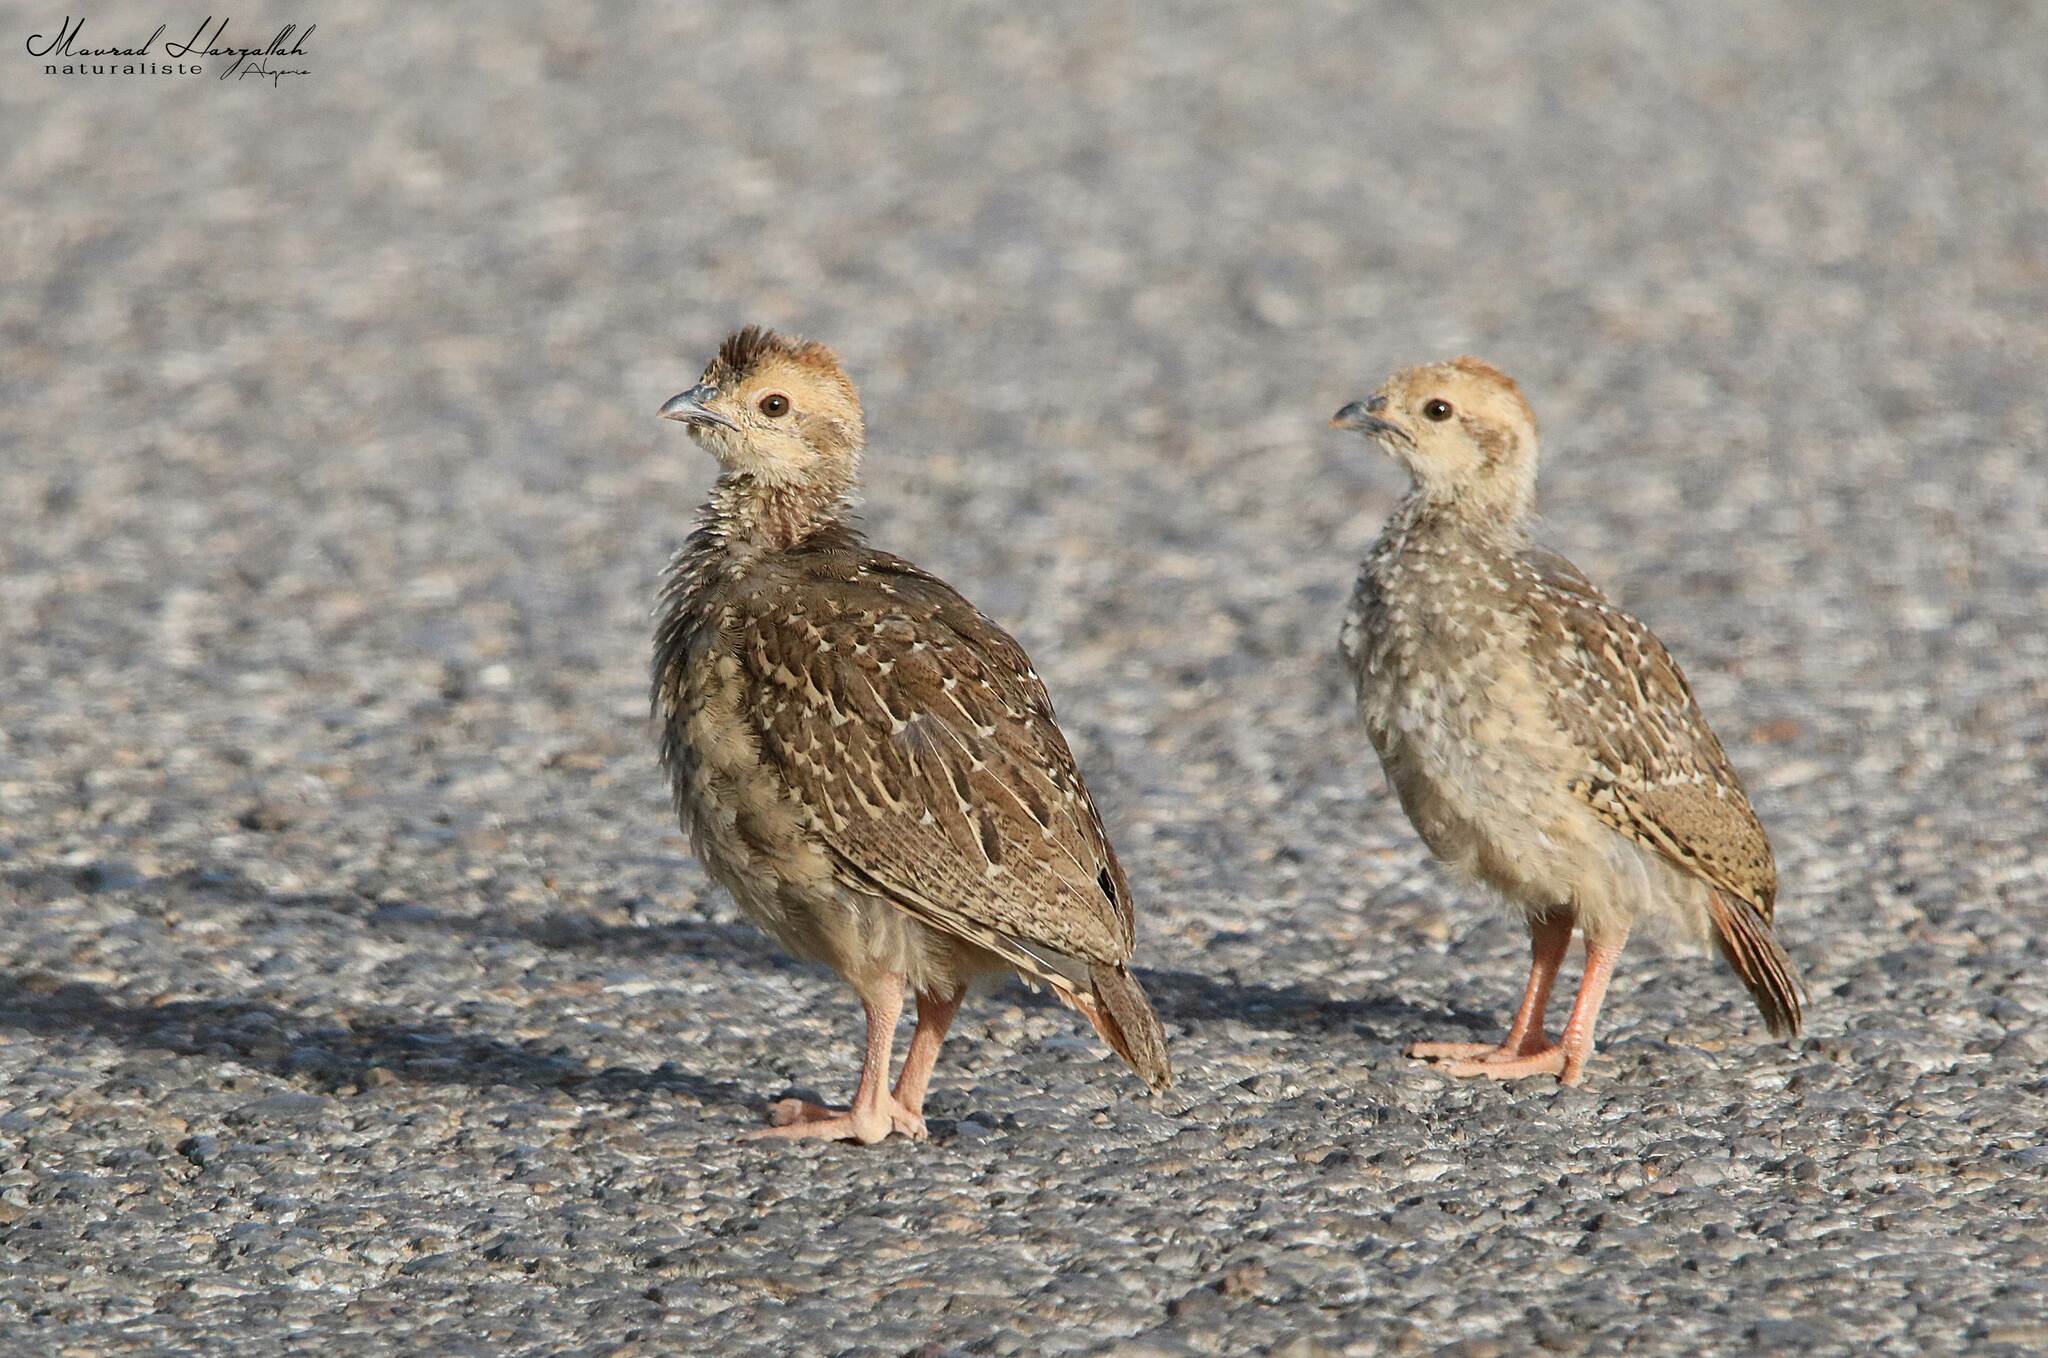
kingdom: Animalia
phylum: Chordata
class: Aves
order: Galliformes
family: Phasianidae
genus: Alectoris
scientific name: Alectoris barbara
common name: Barbary partridge
